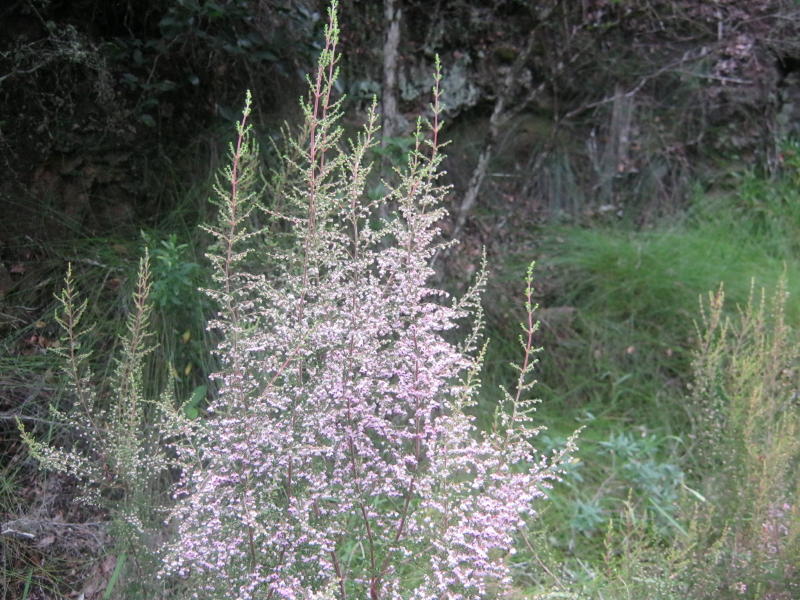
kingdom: Plantae
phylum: Tracheophyta
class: Magnoliopsida
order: Ericales
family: Ericaceae
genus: Erica
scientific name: Erica sparsa
